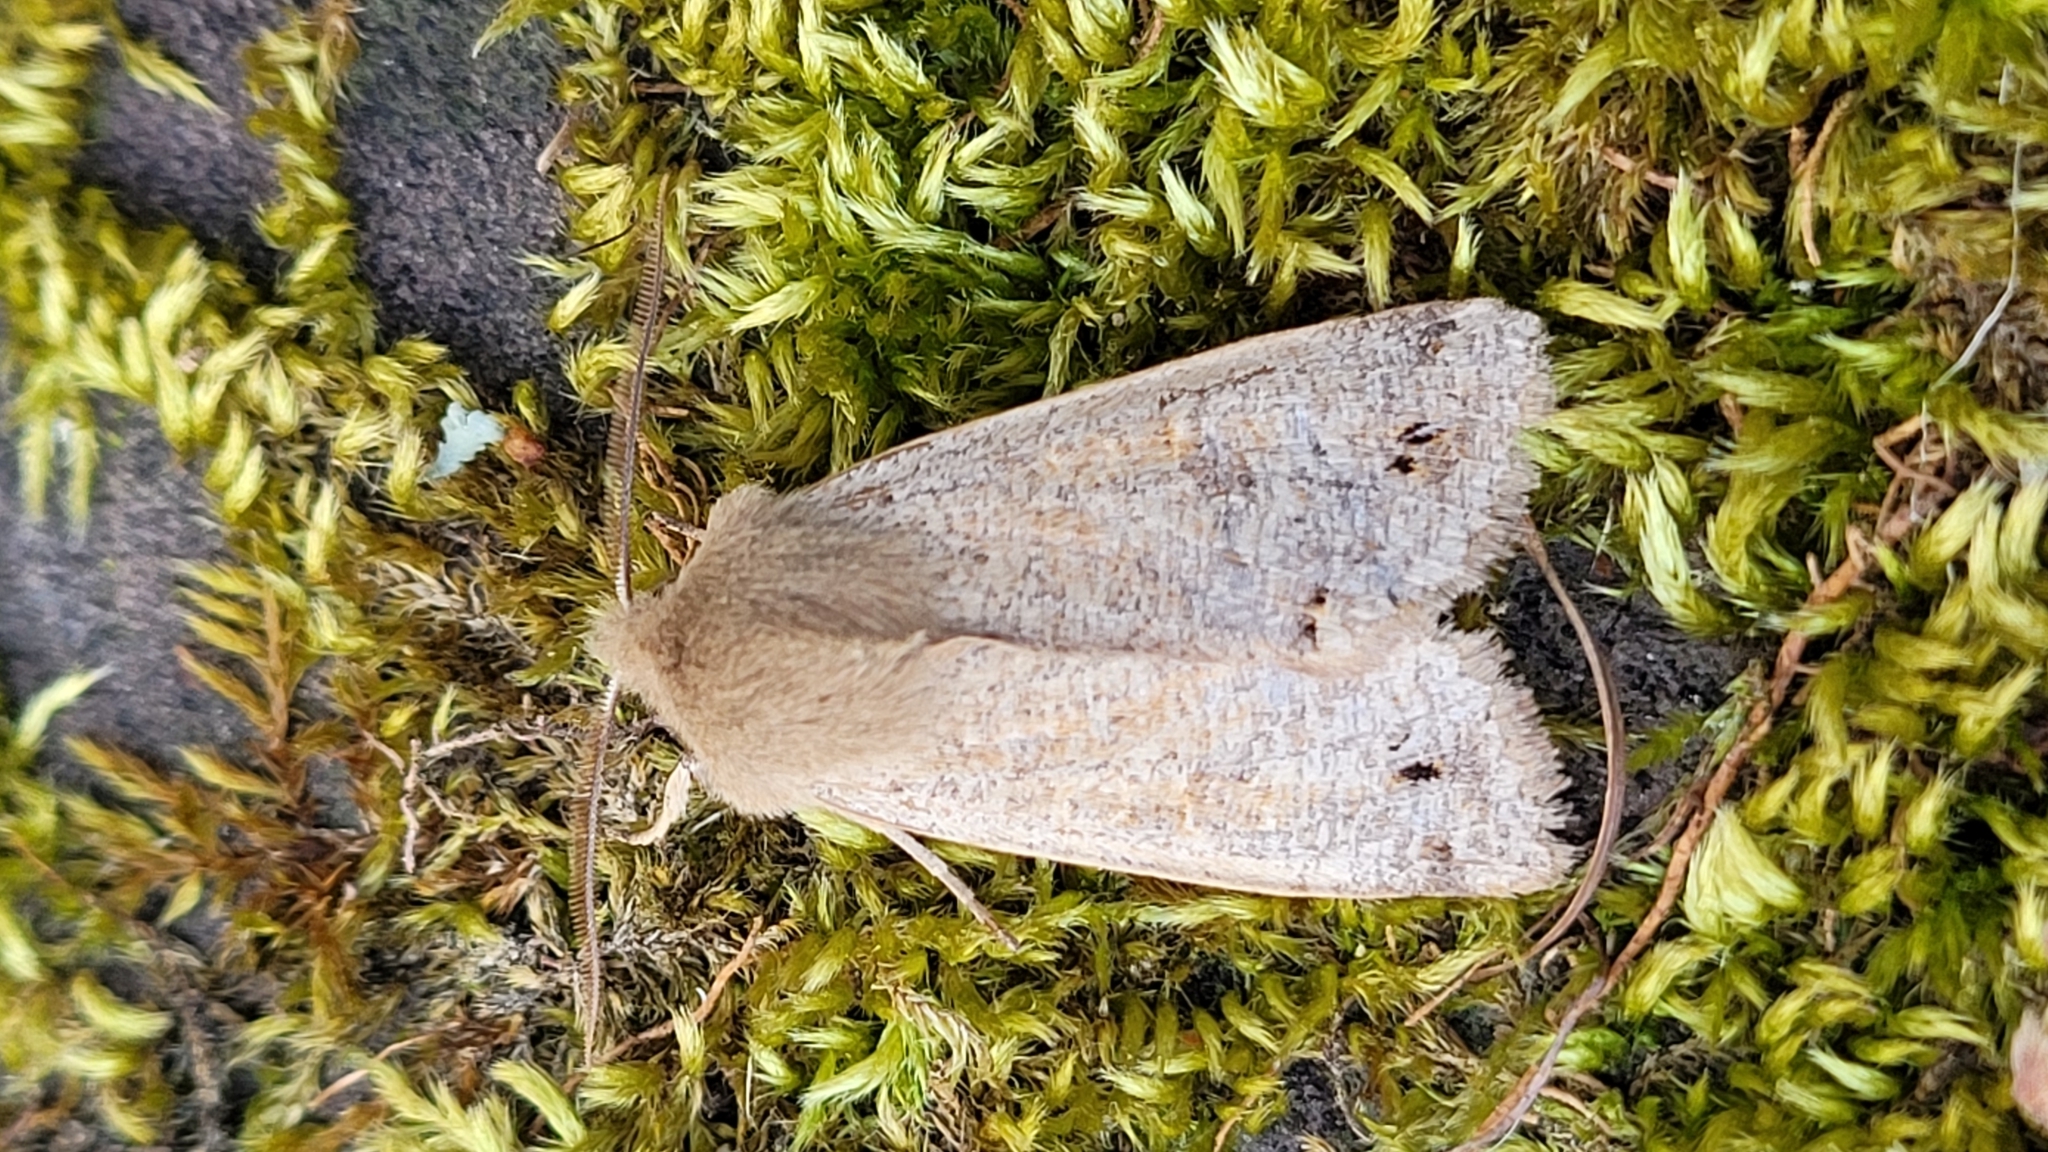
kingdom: Animalia
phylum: Arthropoda
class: Insecta
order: Lepidoptera
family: Noctuidae
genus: Anorthoa
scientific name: Anorthoa munda
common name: Twin-spotted quaker
